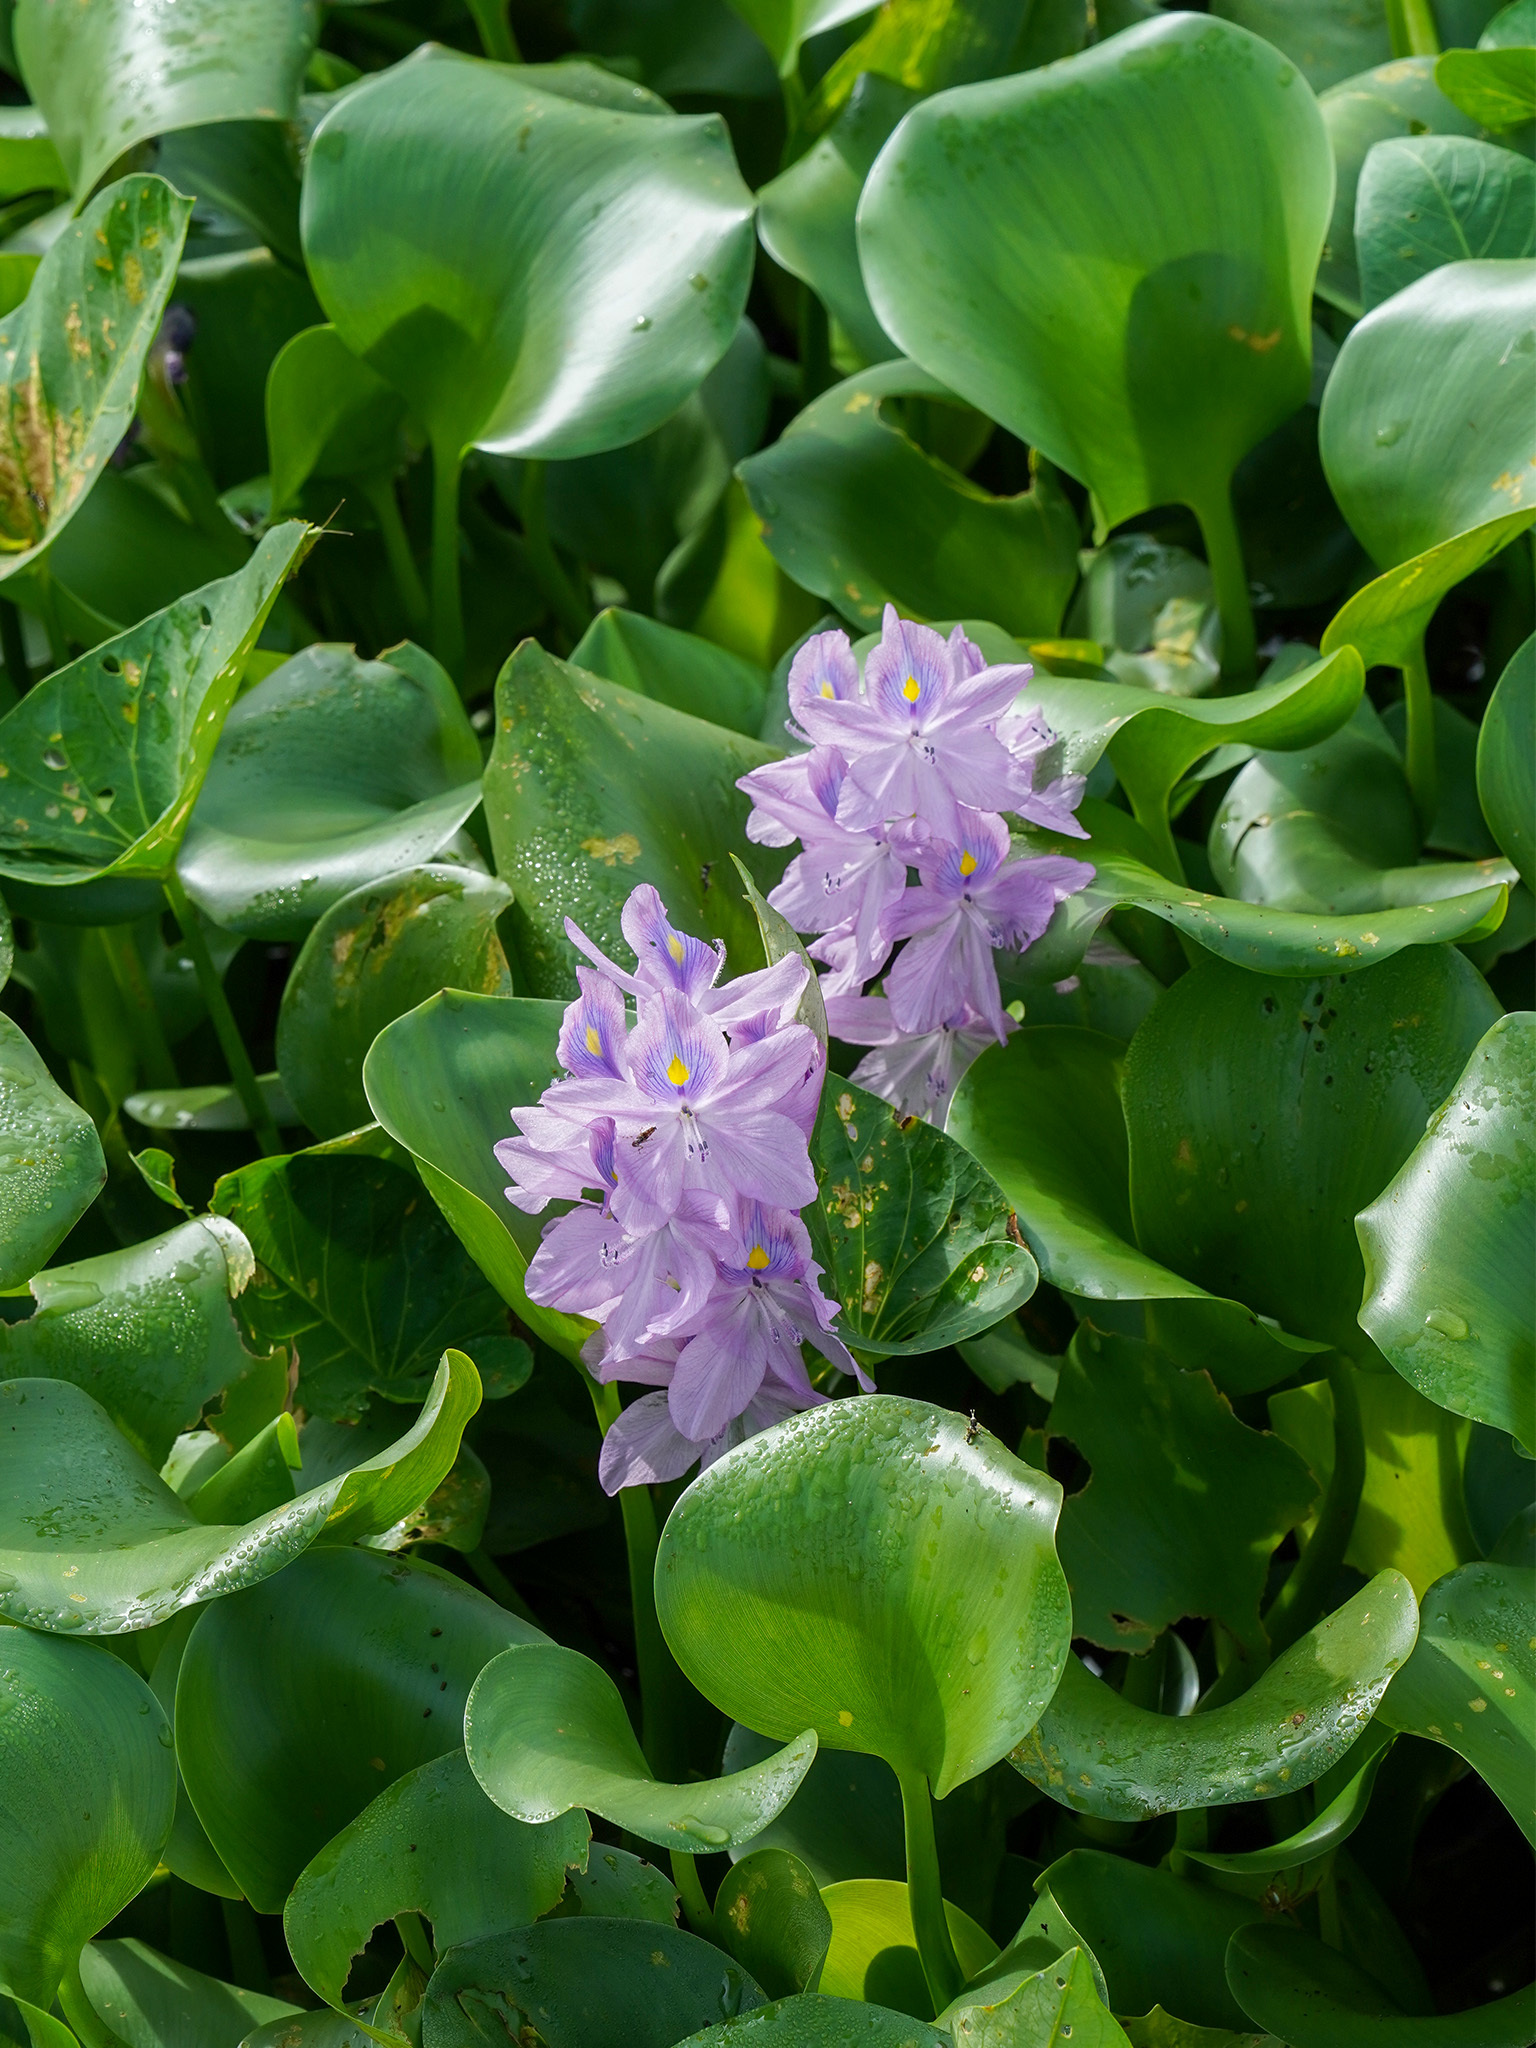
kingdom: Plantae
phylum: Tracheophyta
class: Liliopsida
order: Commelinales
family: Pontederiaceae
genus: Pontederia
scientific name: Pontederia crassipes
